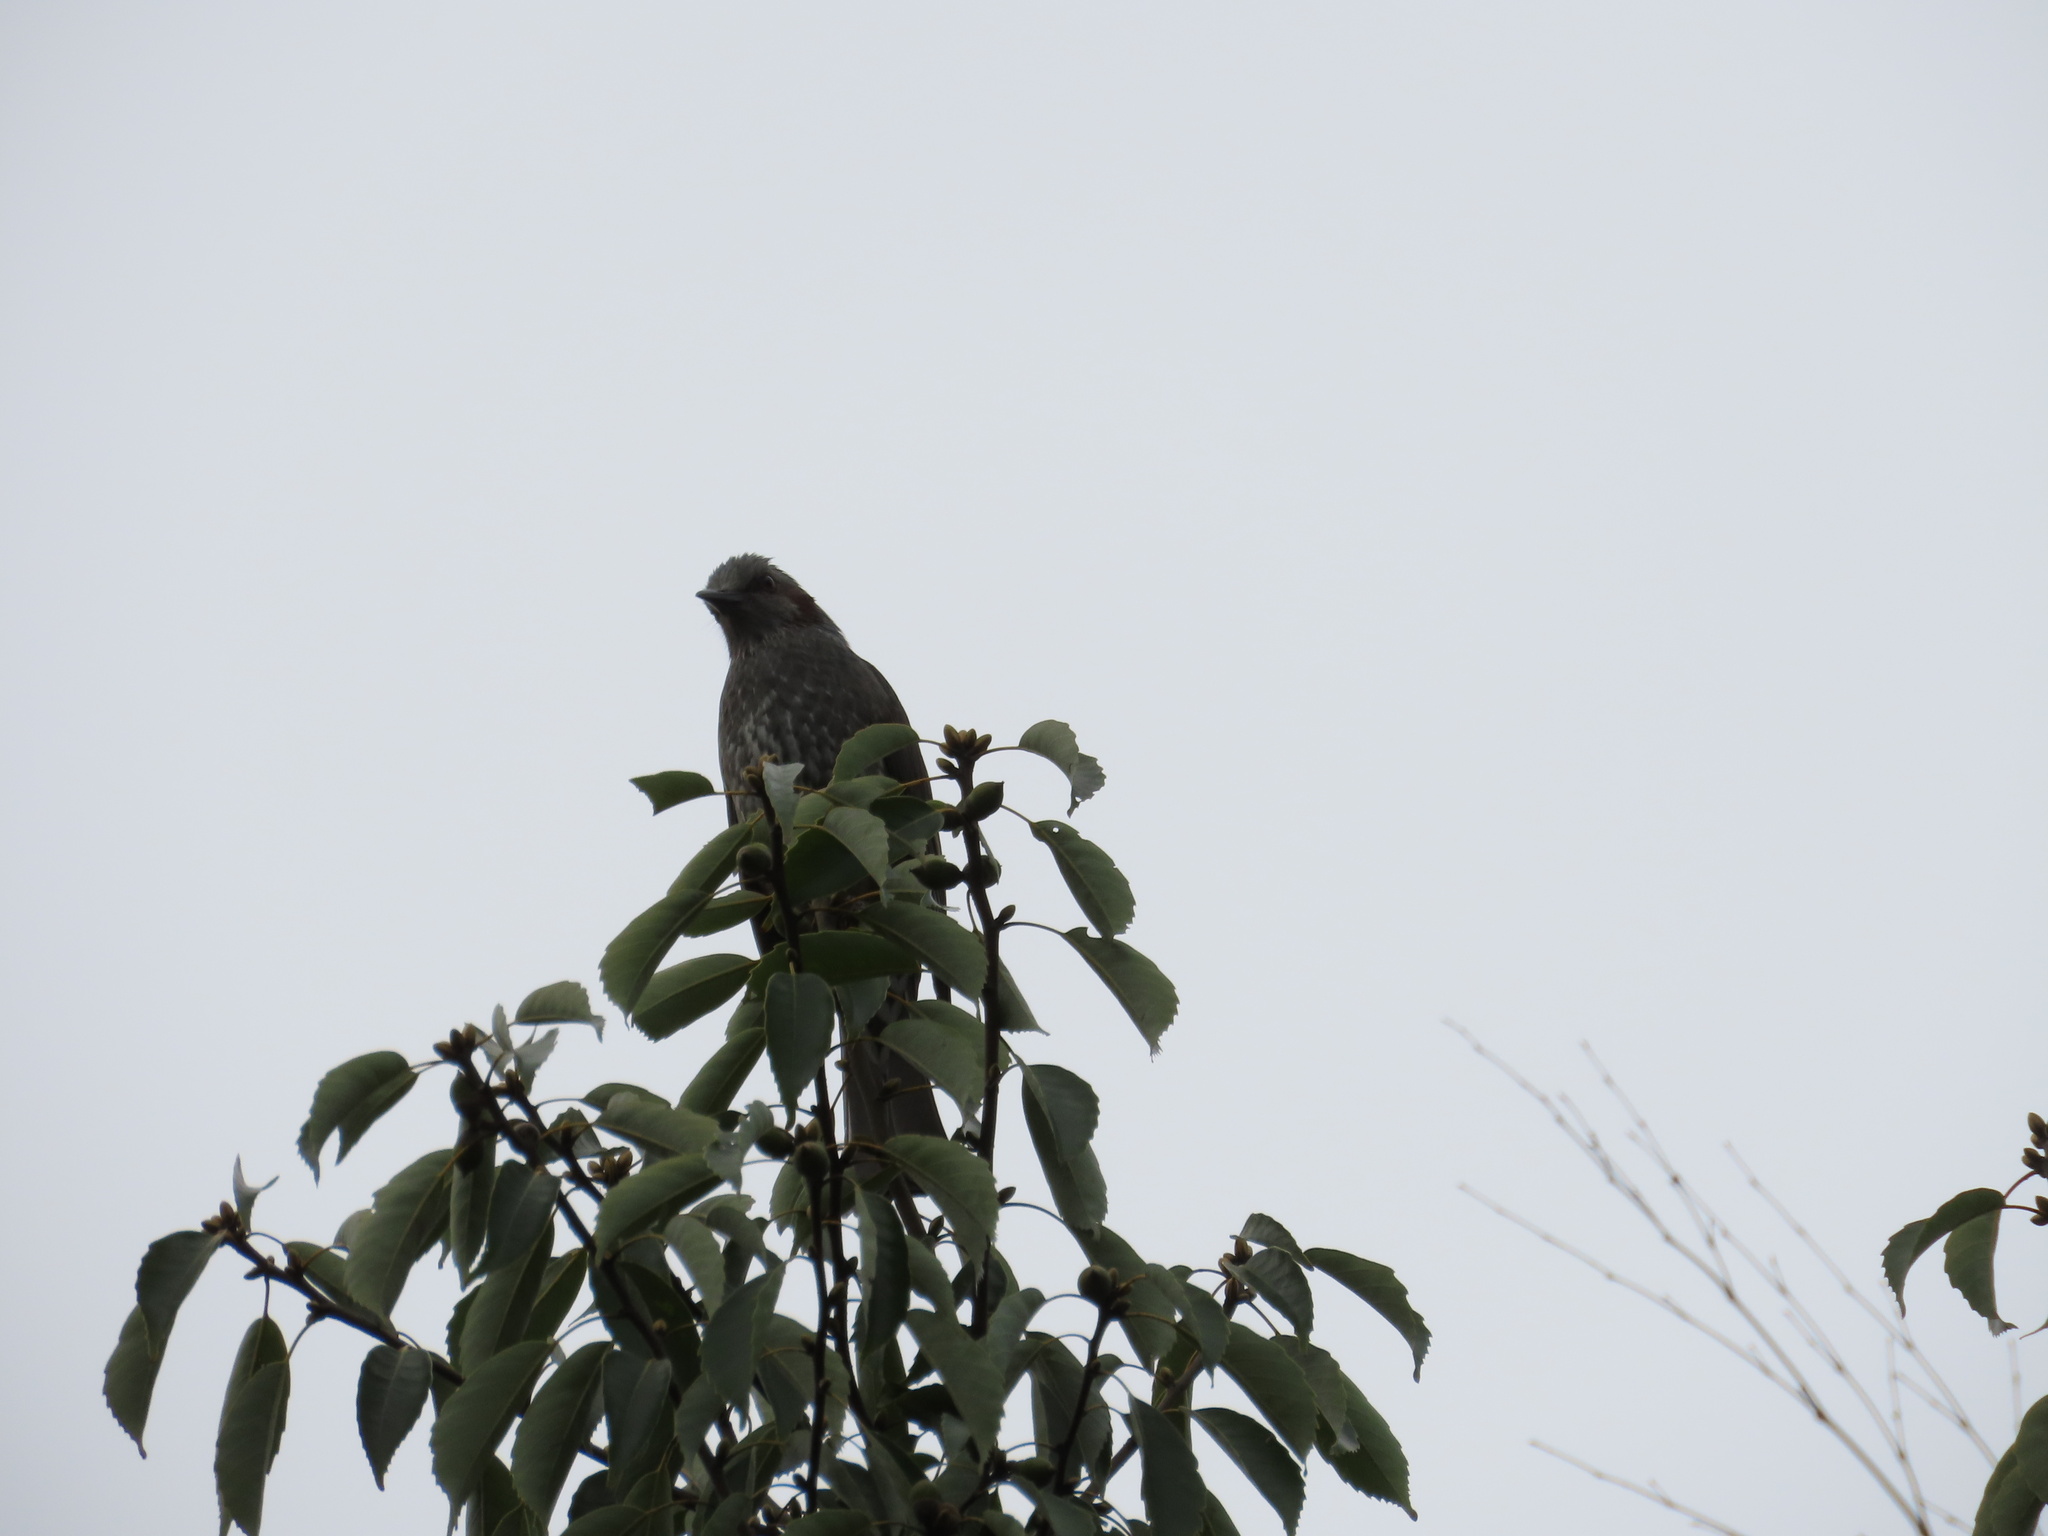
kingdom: Animalia
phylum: Chordata
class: Aves
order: Passeriformes
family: Pycnonotidae
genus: Hypsipetes
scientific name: Hypsipetes amaurotis
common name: Brown-eared bulbul
